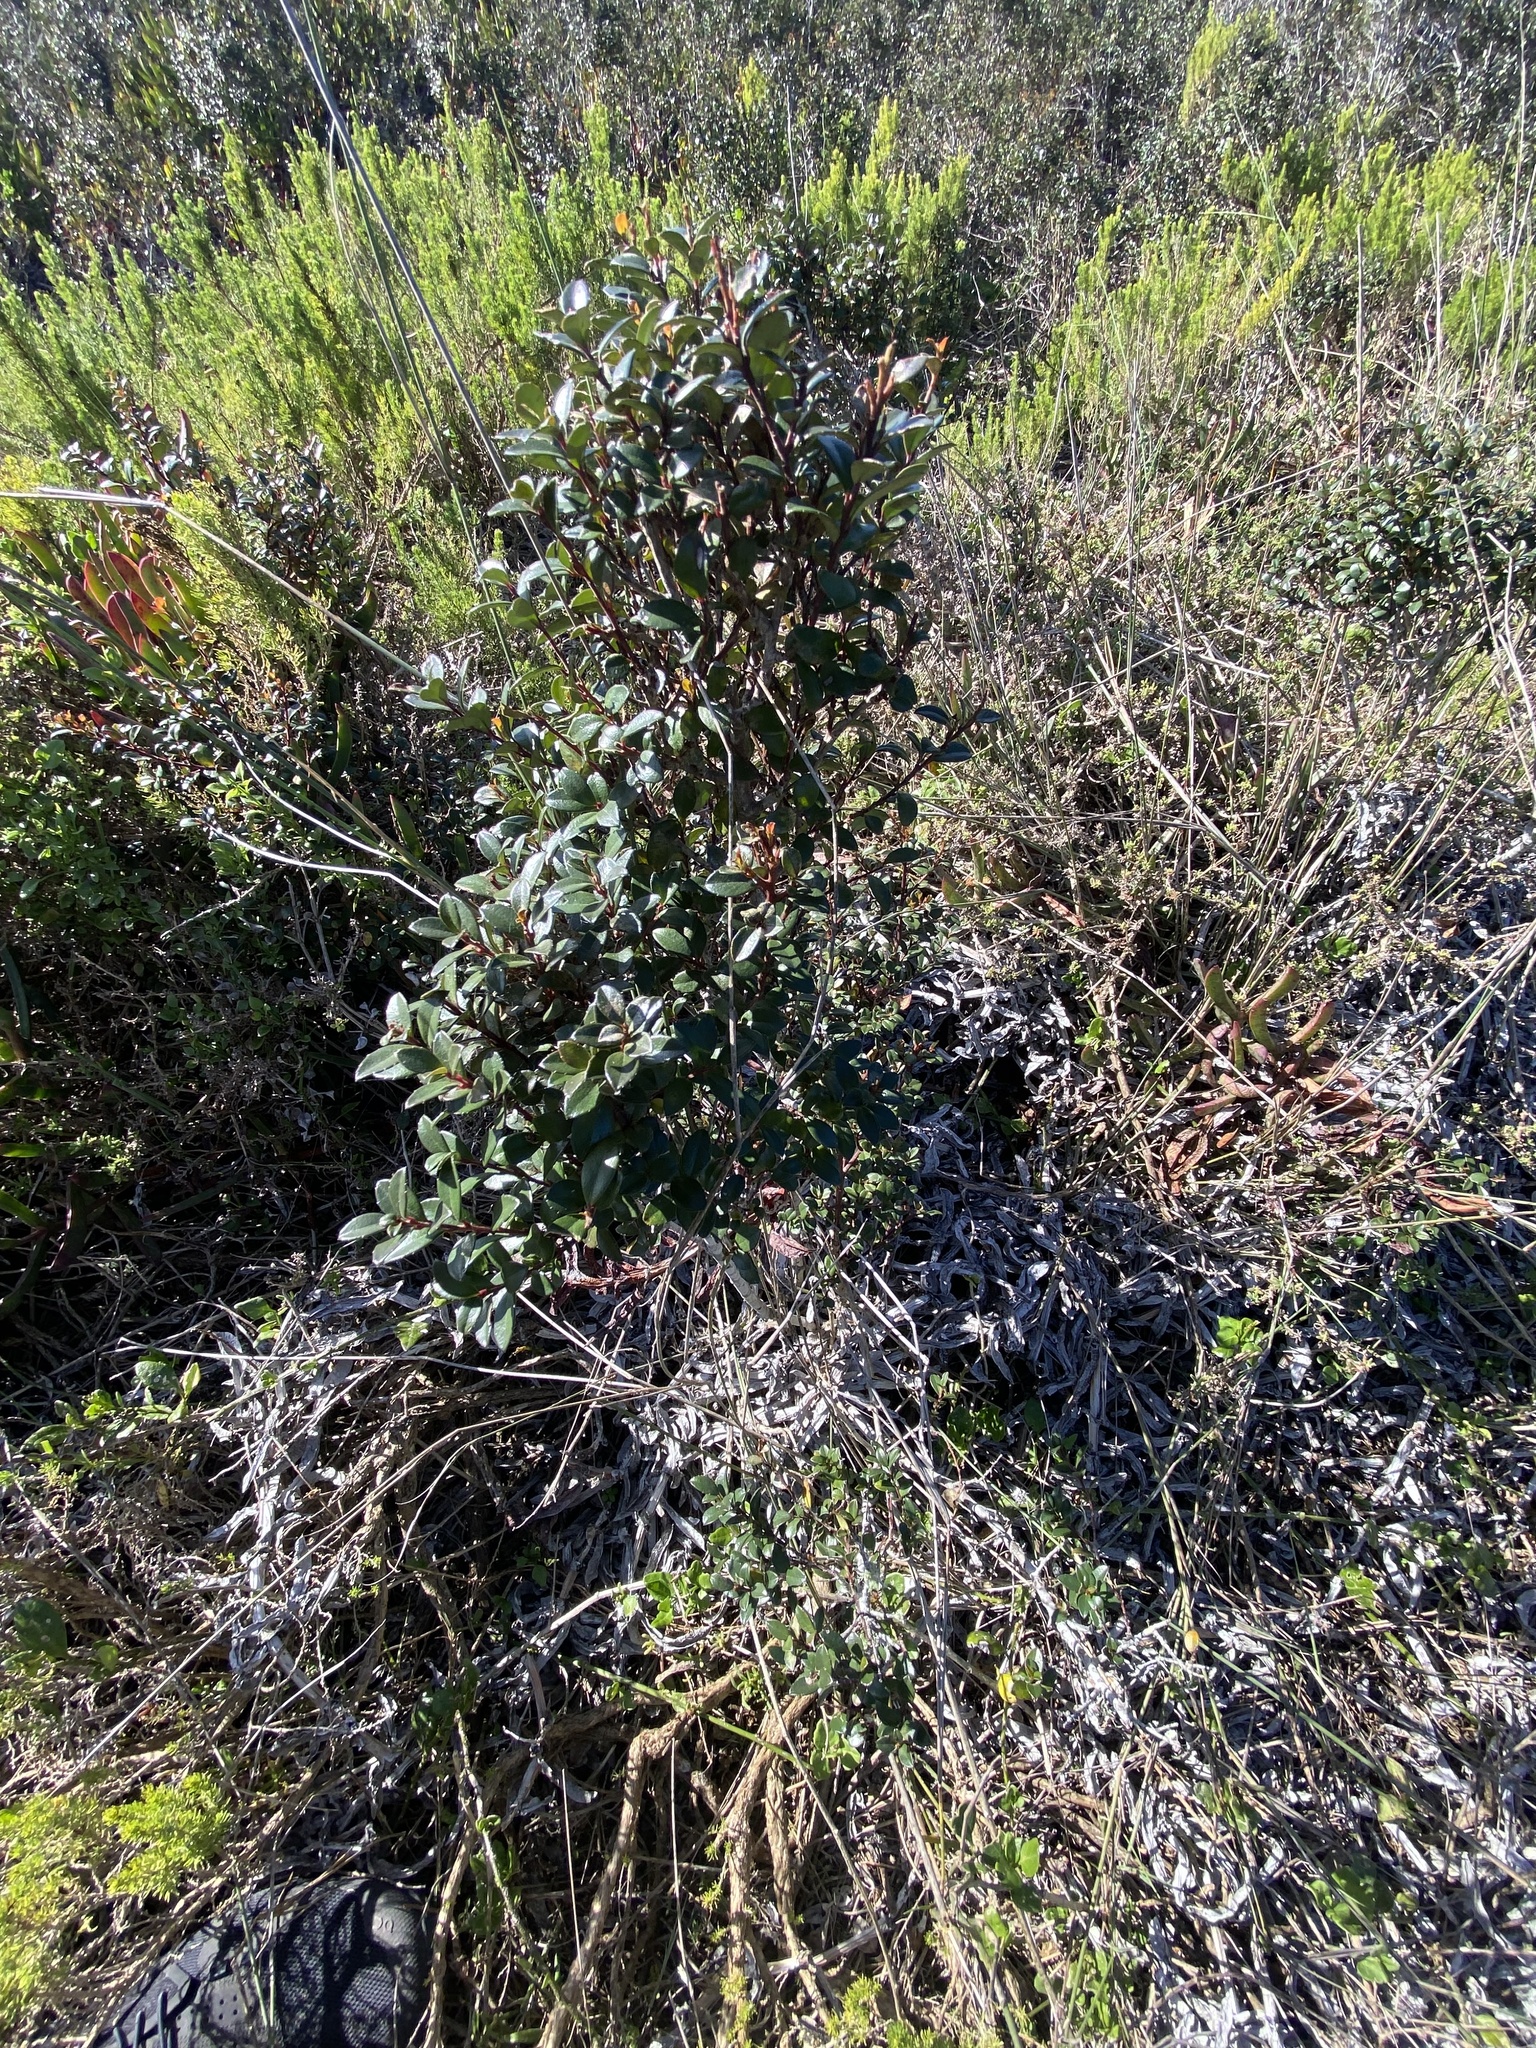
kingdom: Plantae
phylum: Tracheophyta
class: Magnoliopsida
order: Ericales
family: Primulaceae
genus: Myrsine
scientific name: Myrsine africana
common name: African-boxwood
